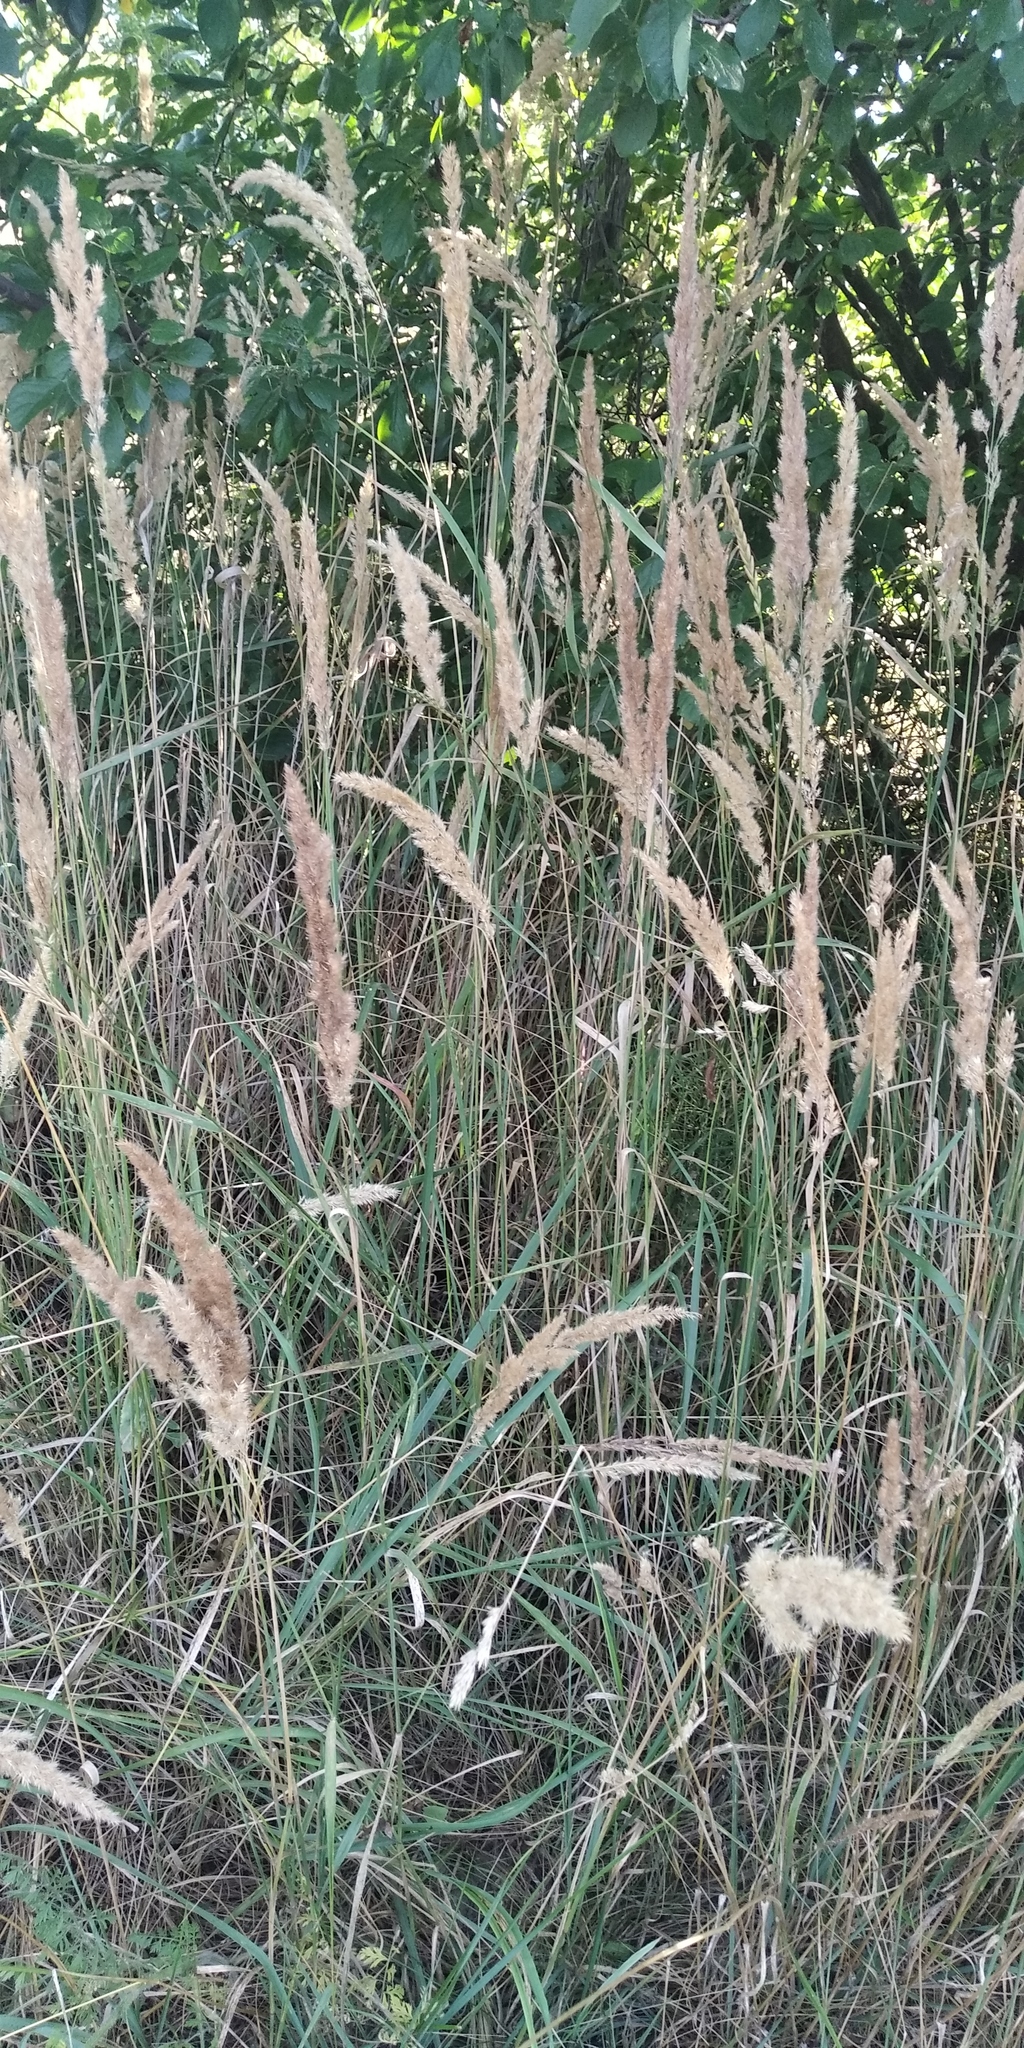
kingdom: Plantae
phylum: Tracheophyta
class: Liliopsida
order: Poales
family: Poaceae
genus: Calamagrostis
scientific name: Calamagrostis epigejos
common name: Wood small-reed
